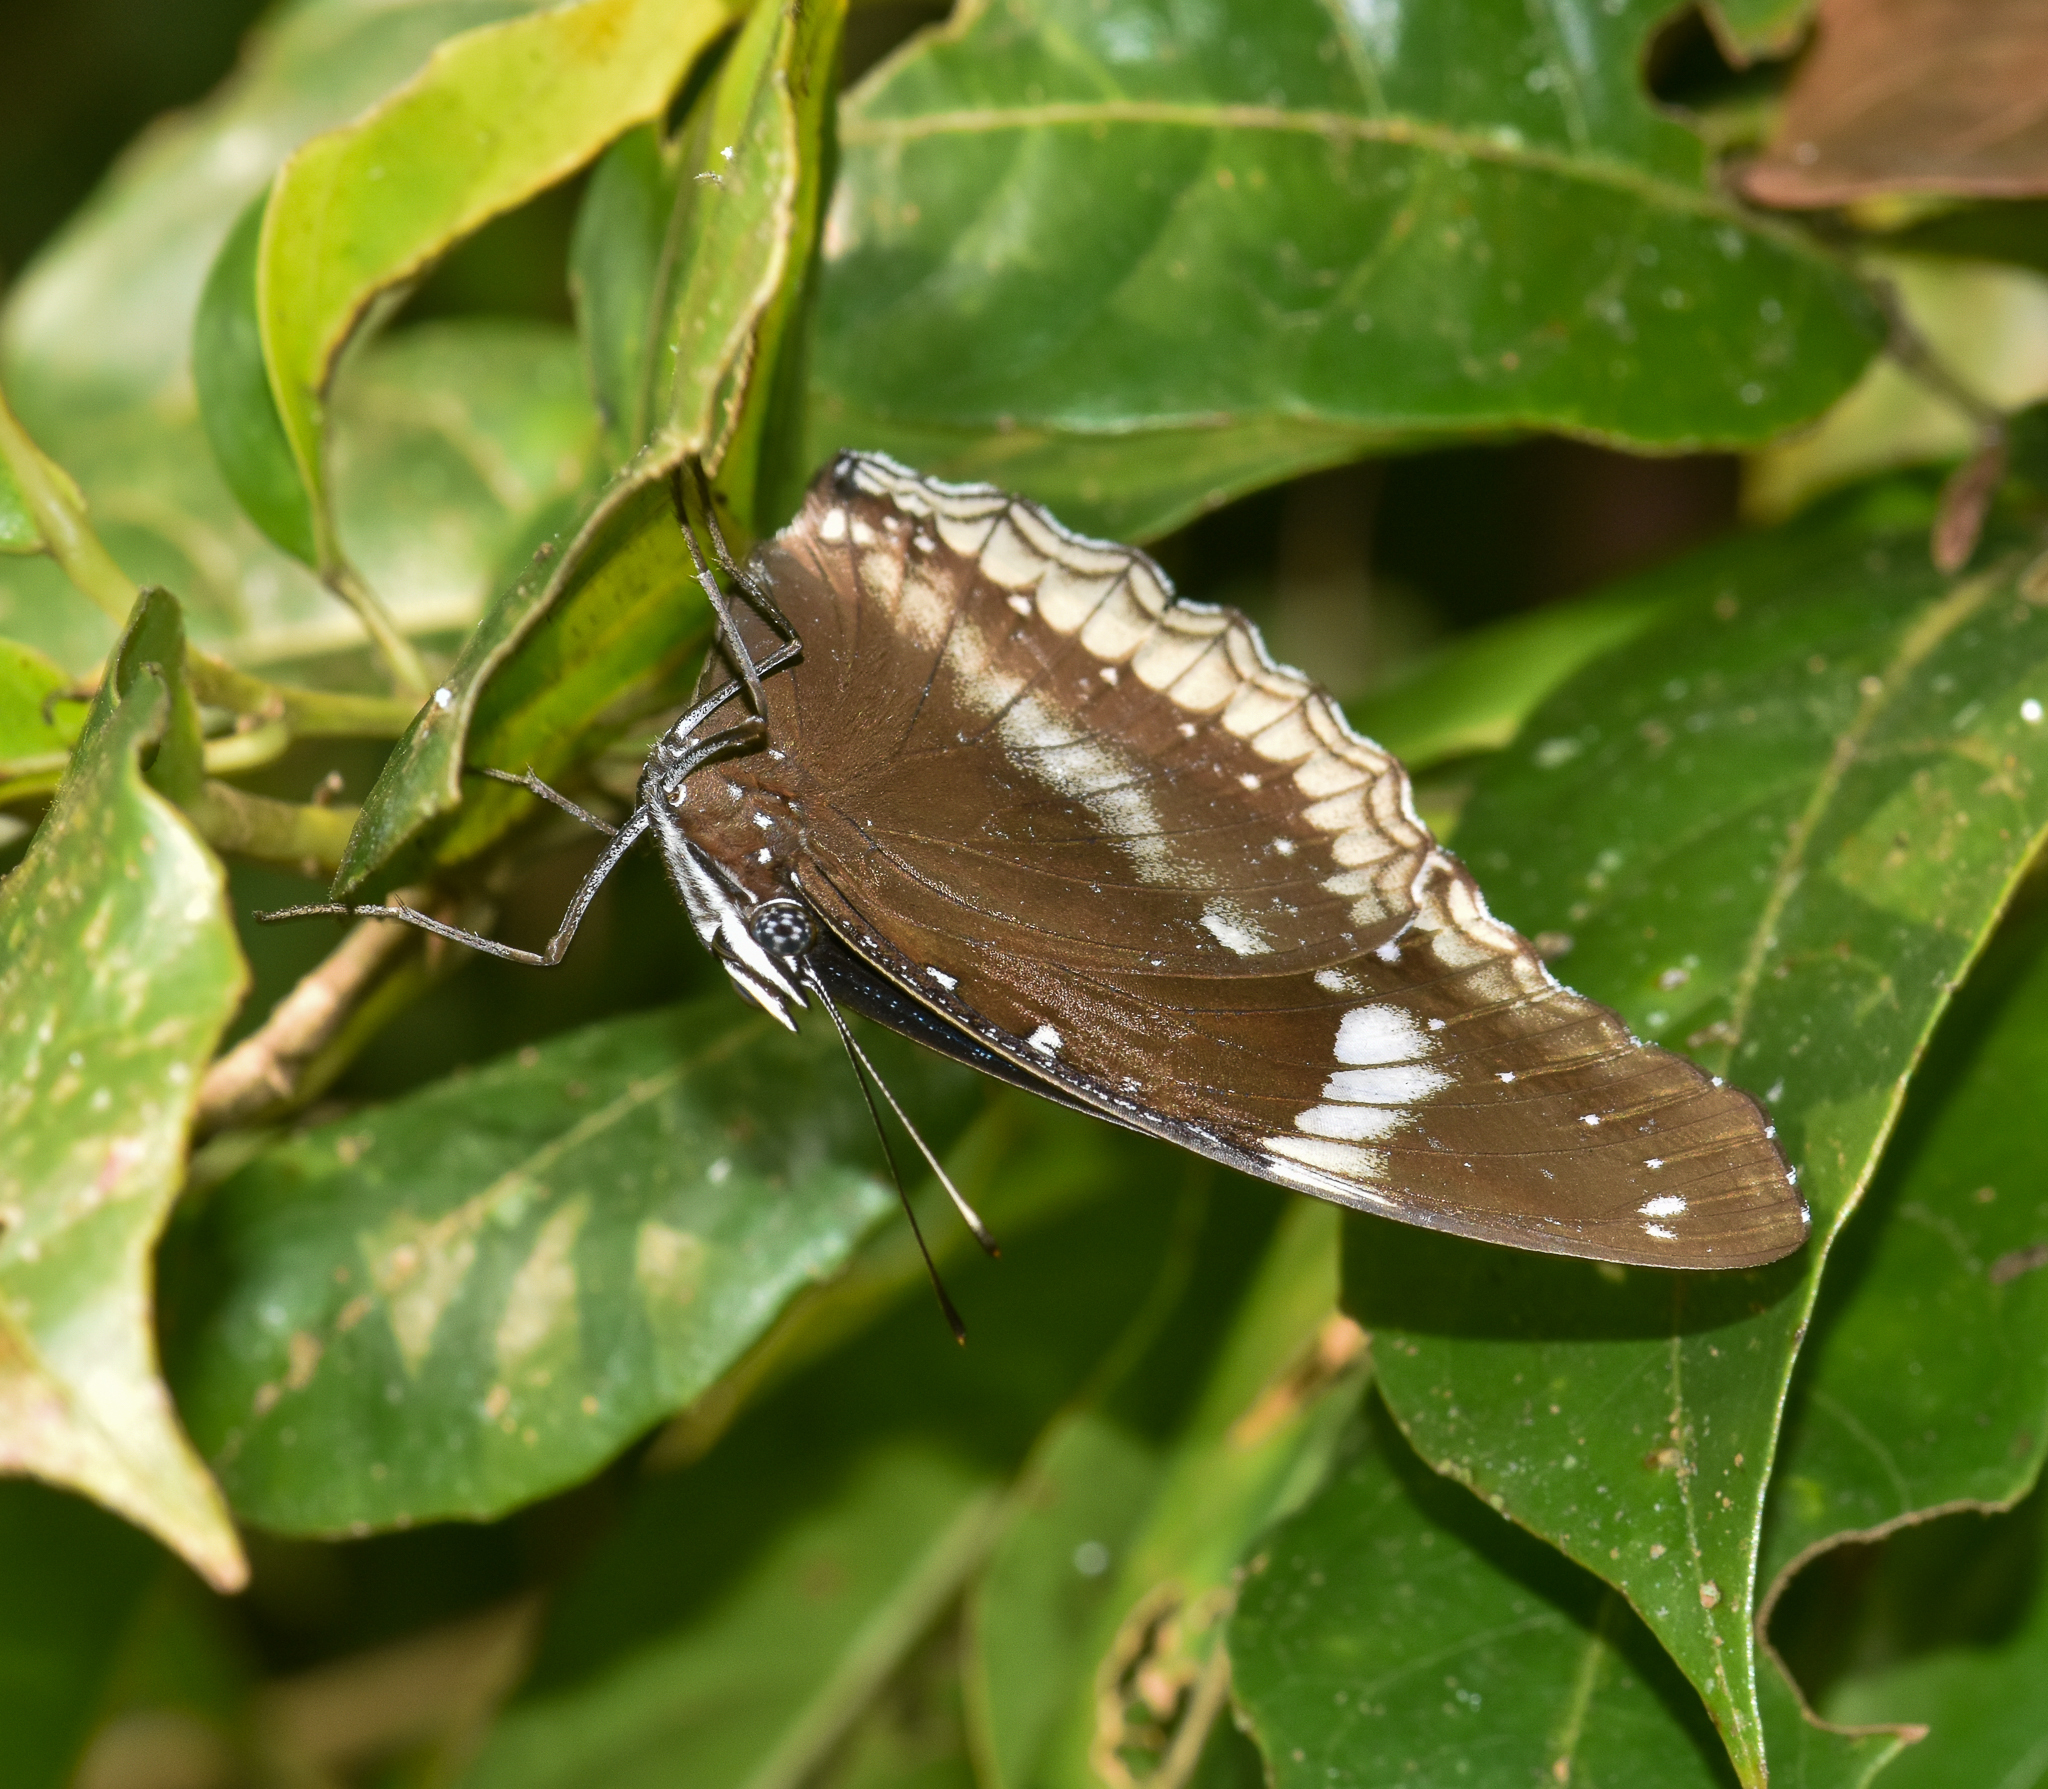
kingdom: Animalia
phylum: Arthropoda
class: Insecta
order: Lepidoptera
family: Nymphalidae
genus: Hypolimnas
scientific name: Hypolimnas bolina
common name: Great eggfly
